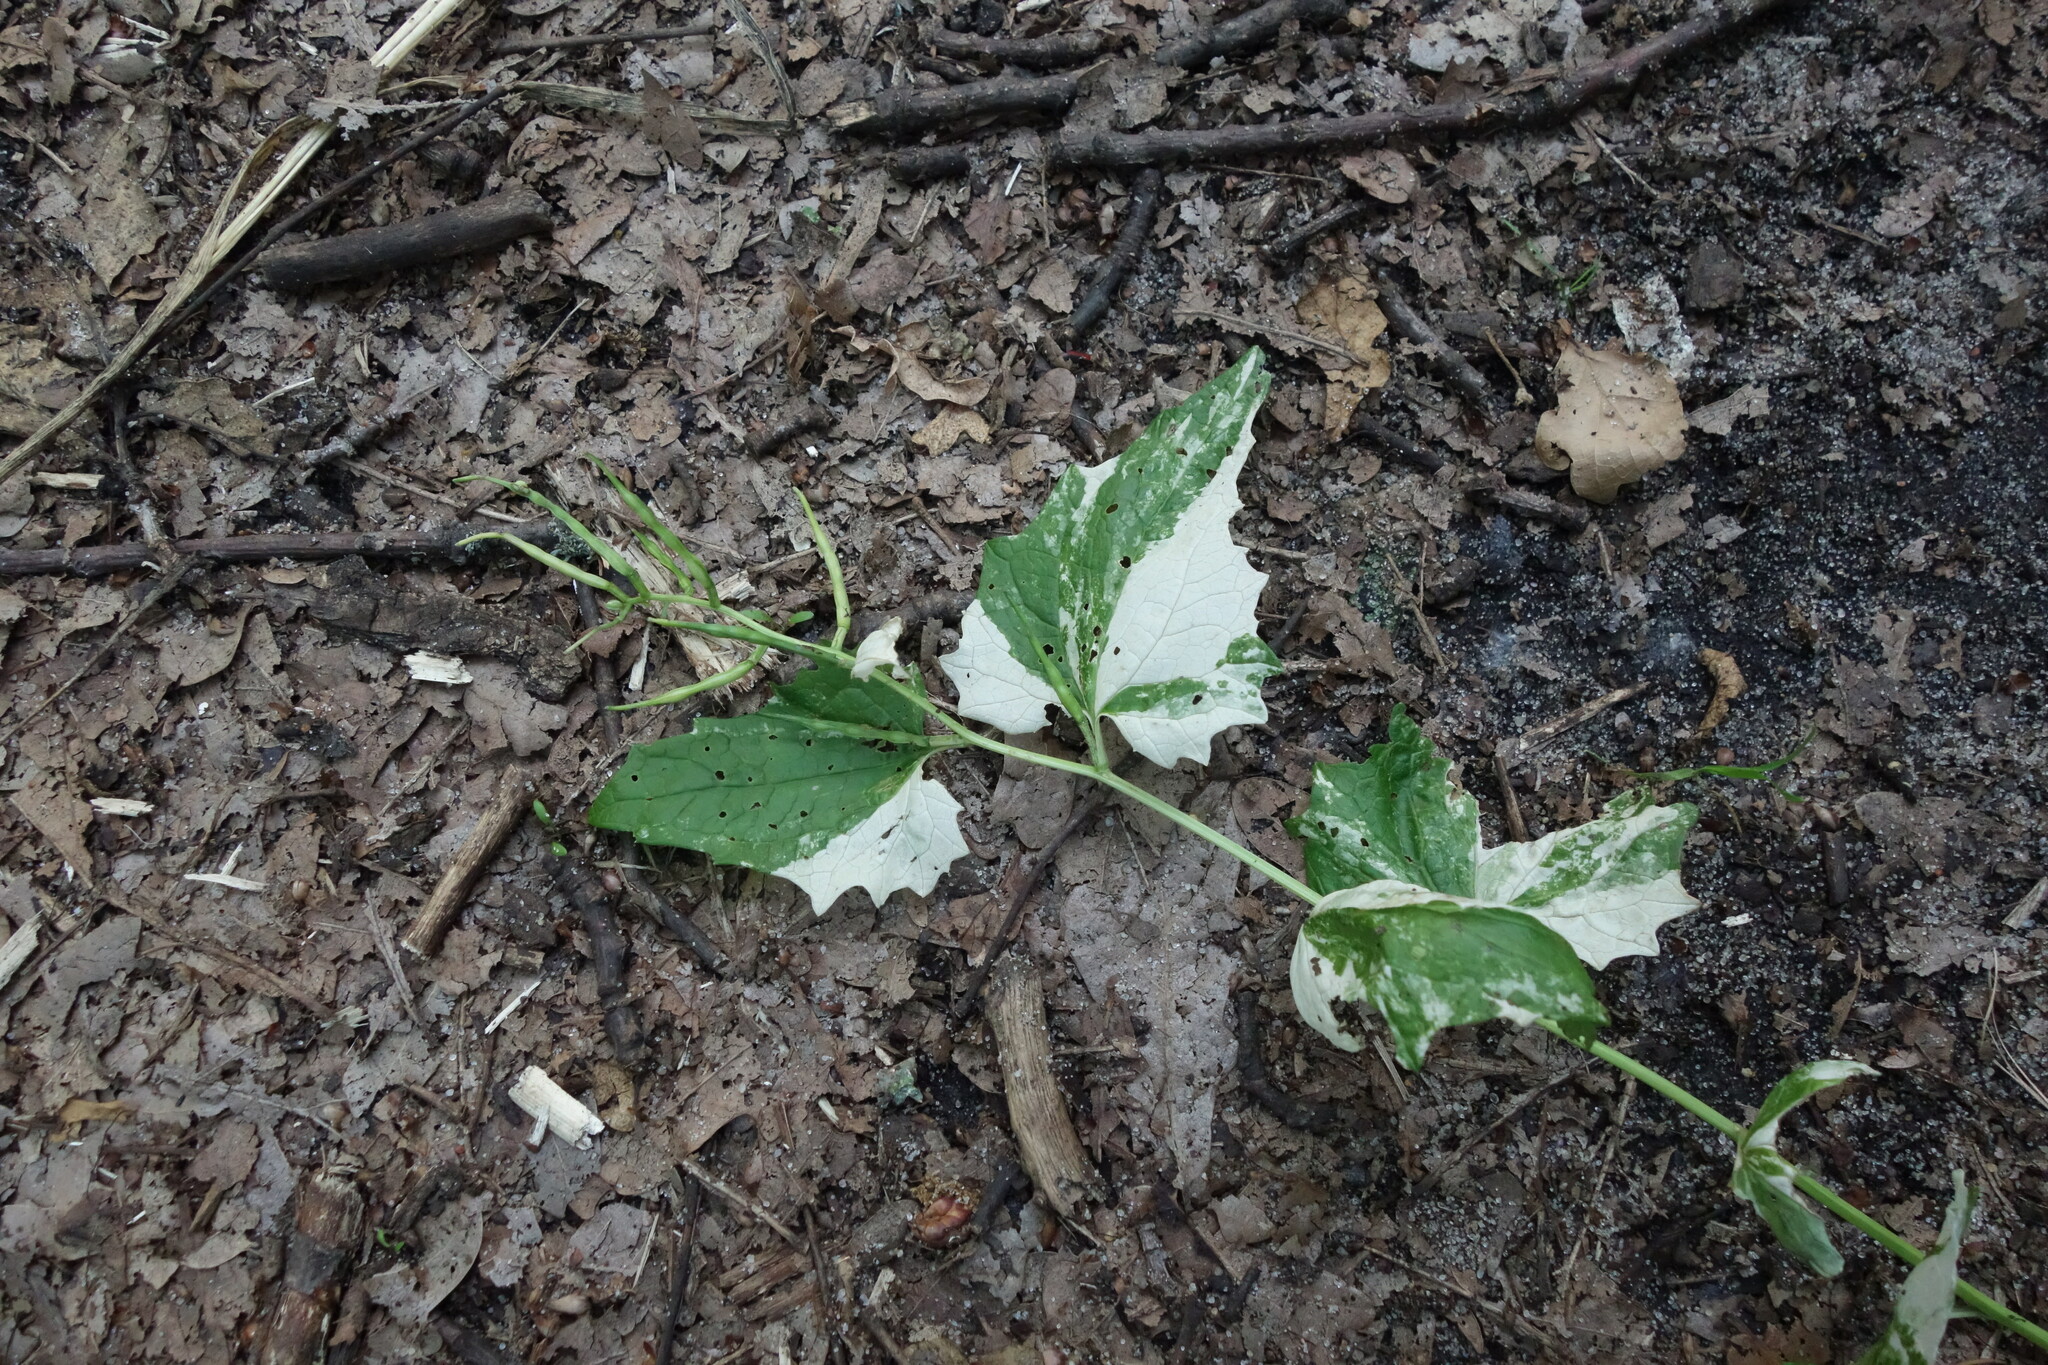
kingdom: Plantae
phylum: Tracheophyta
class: Magnoliopsida
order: Brassicales
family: Brassicaceae
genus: Alliaria
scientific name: Alliaria petiolata
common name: Garlic mustard
